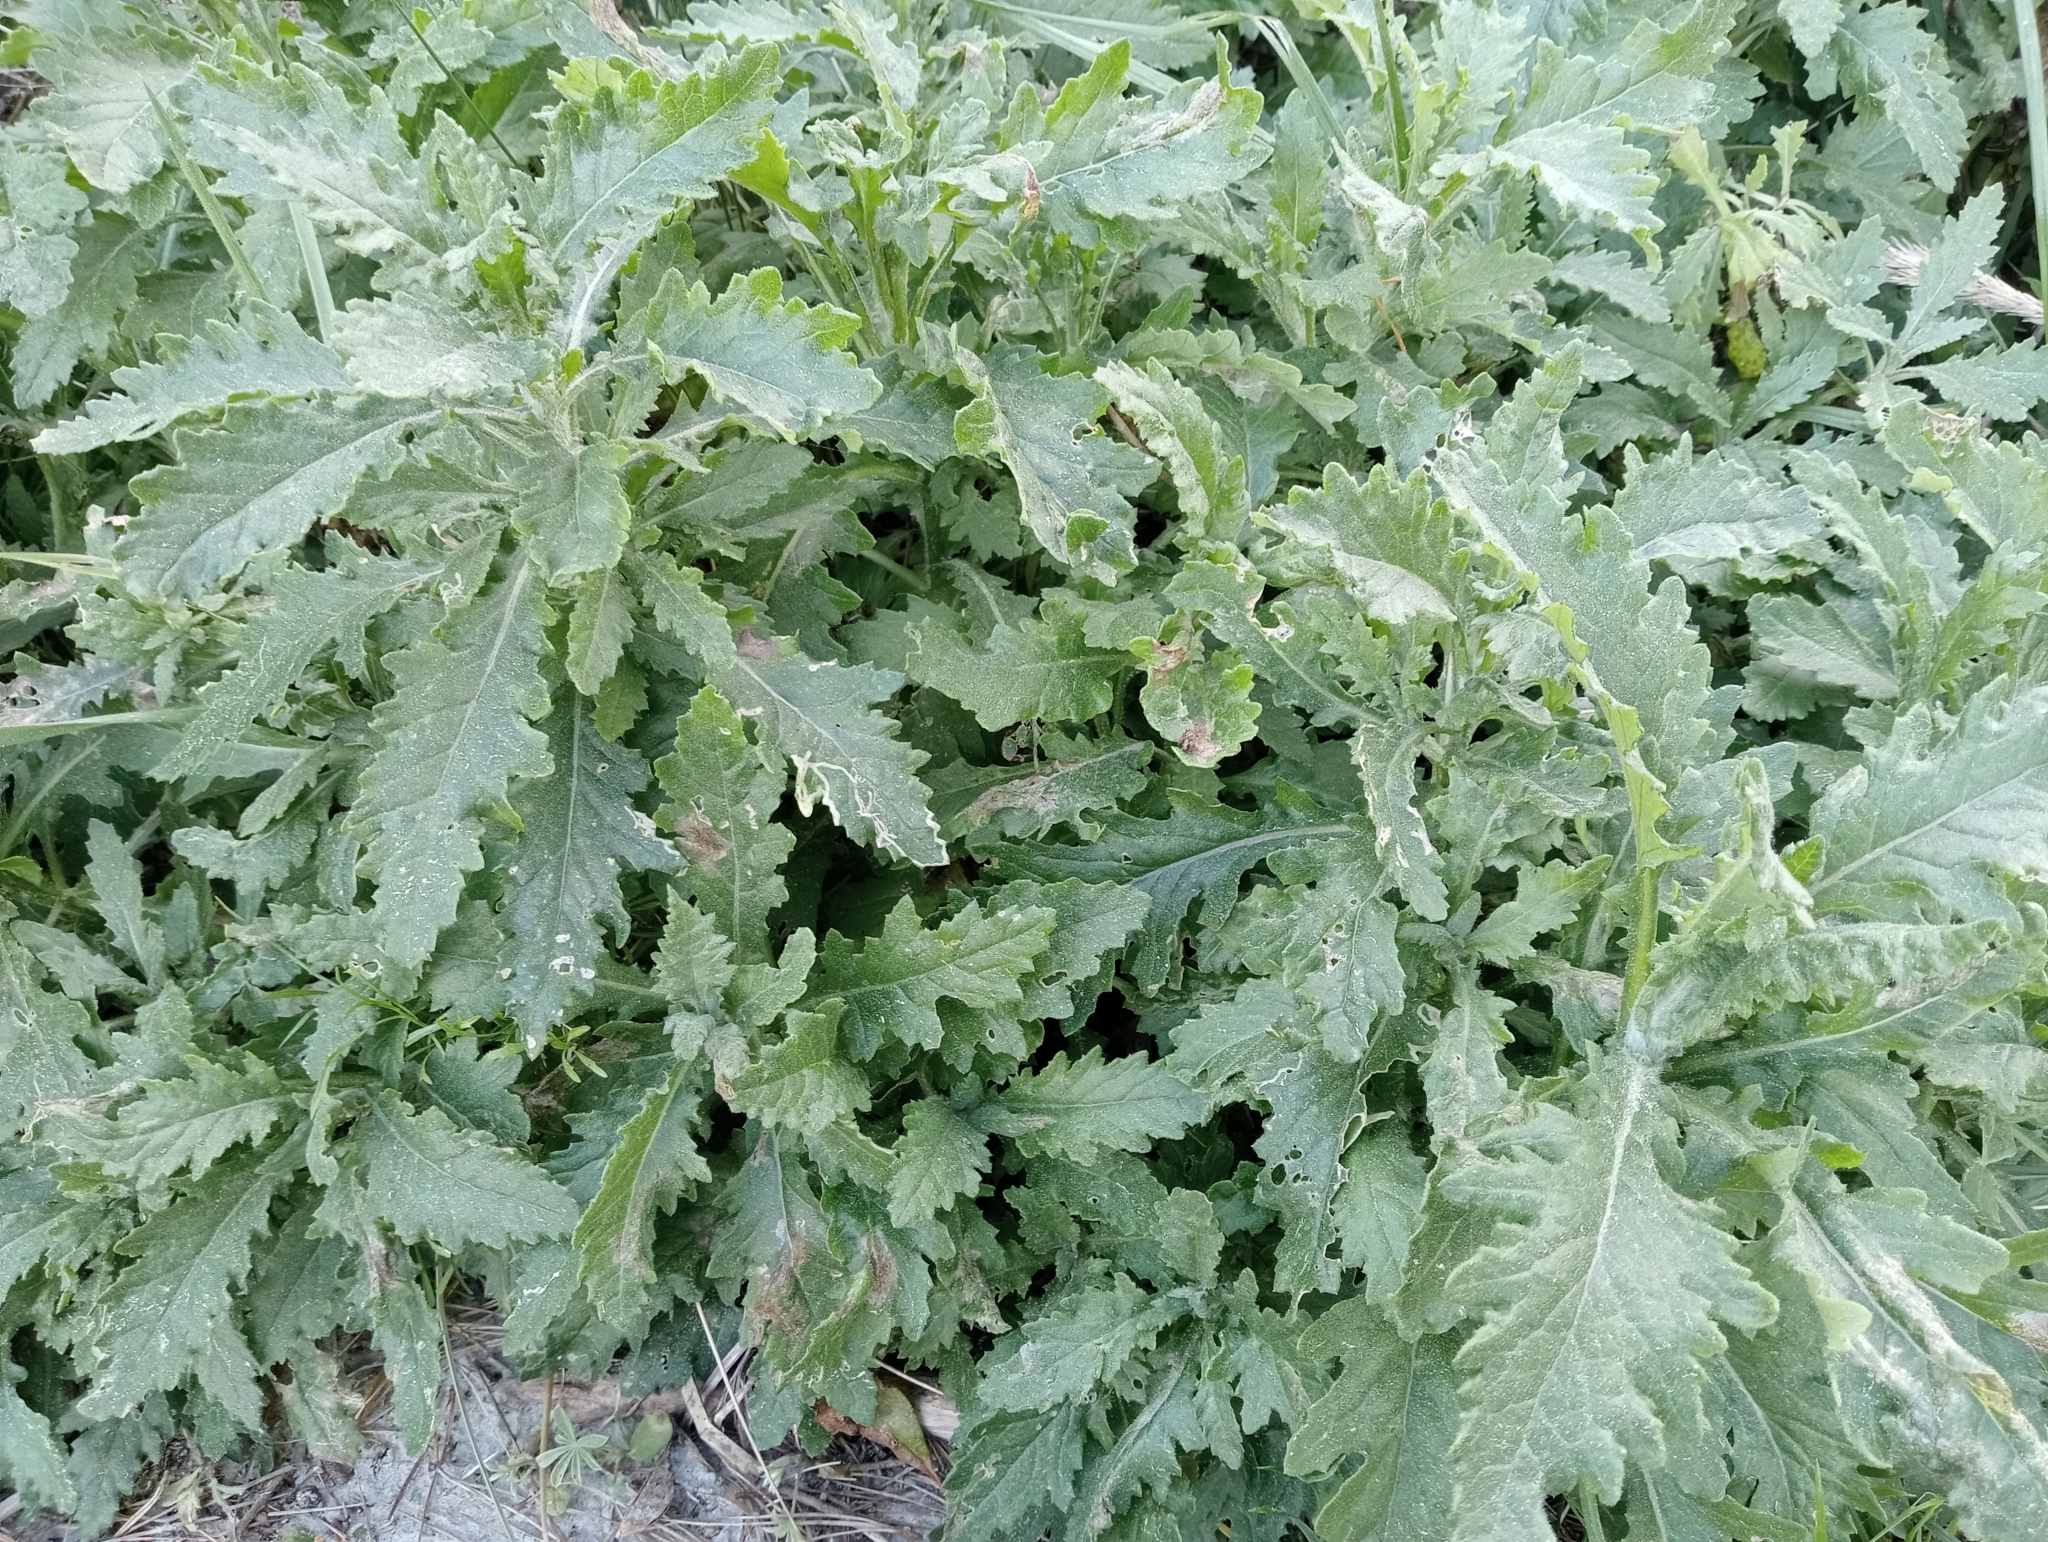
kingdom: Plantae
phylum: Tracheophyta
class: Magnoliopsida
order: Asterales
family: Asteraceae
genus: Senecio
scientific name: Senecio biserratus
